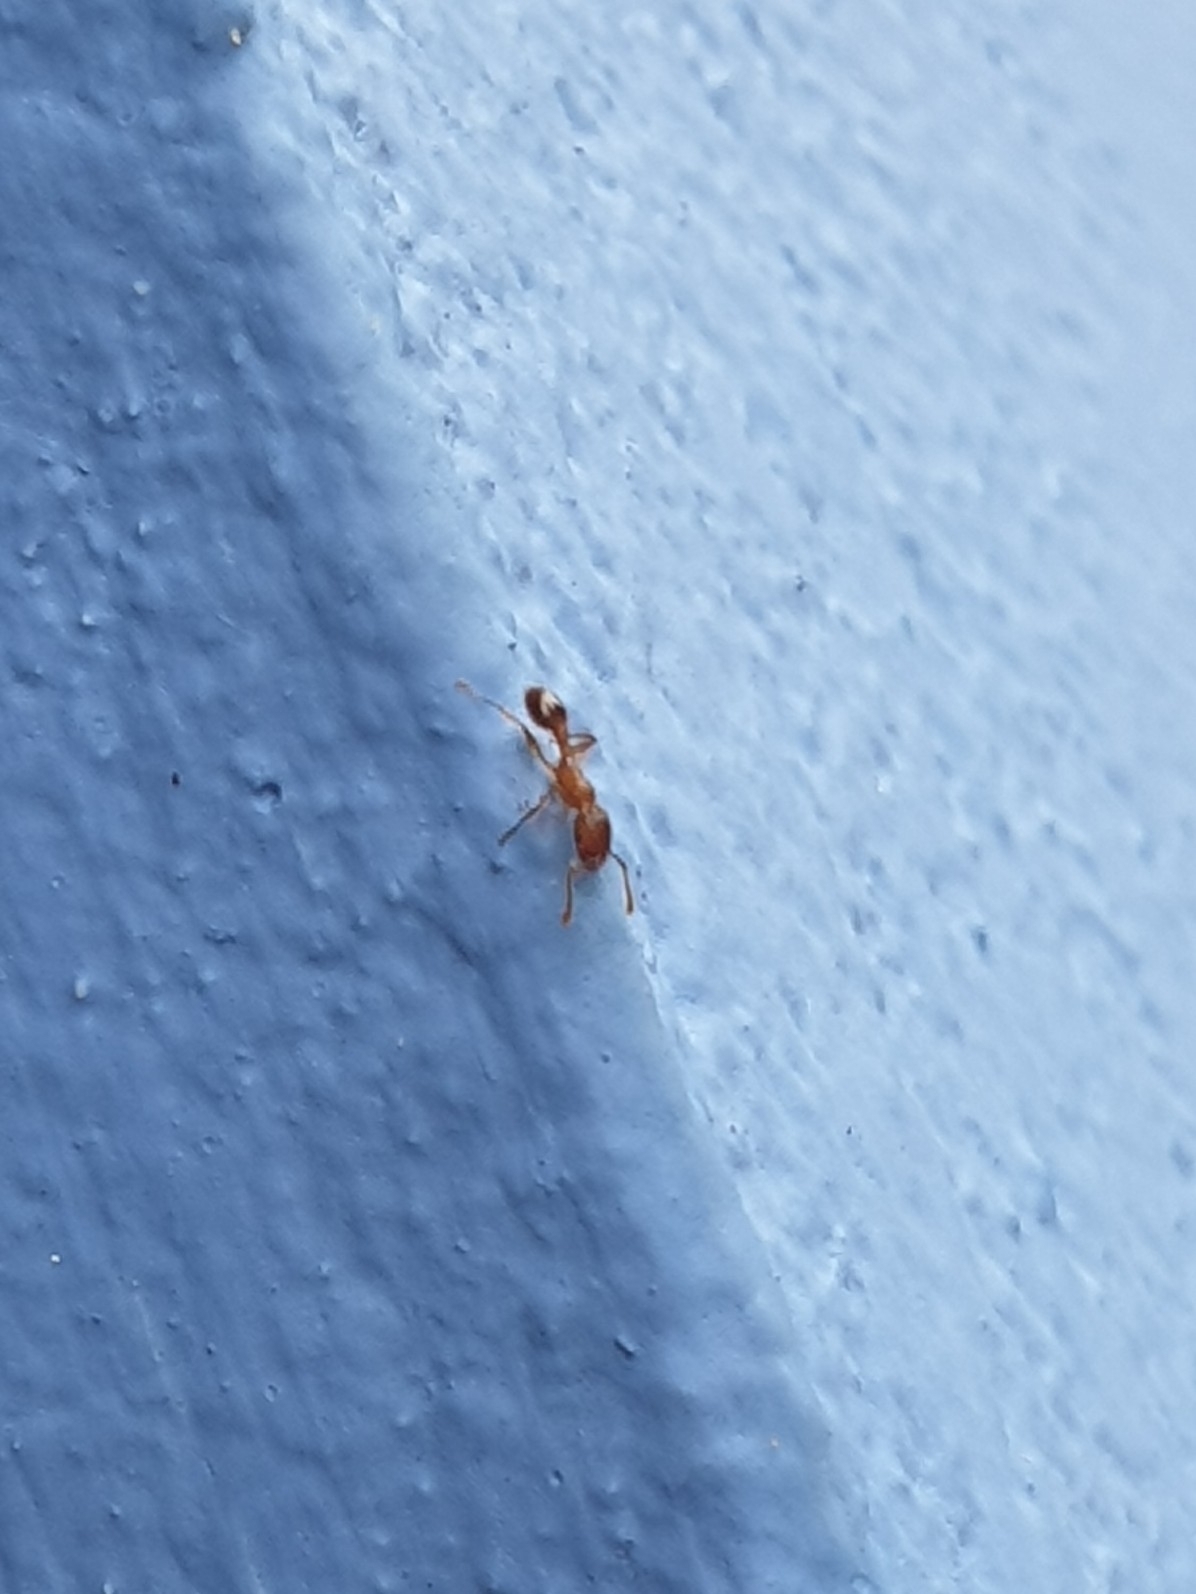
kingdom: Animalia
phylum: Arthropoda
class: Insecta
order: Hymenoptera
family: Formicidae
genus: Tetramorium
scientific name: Tetramorium bicarinatum
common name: Guinea ant
